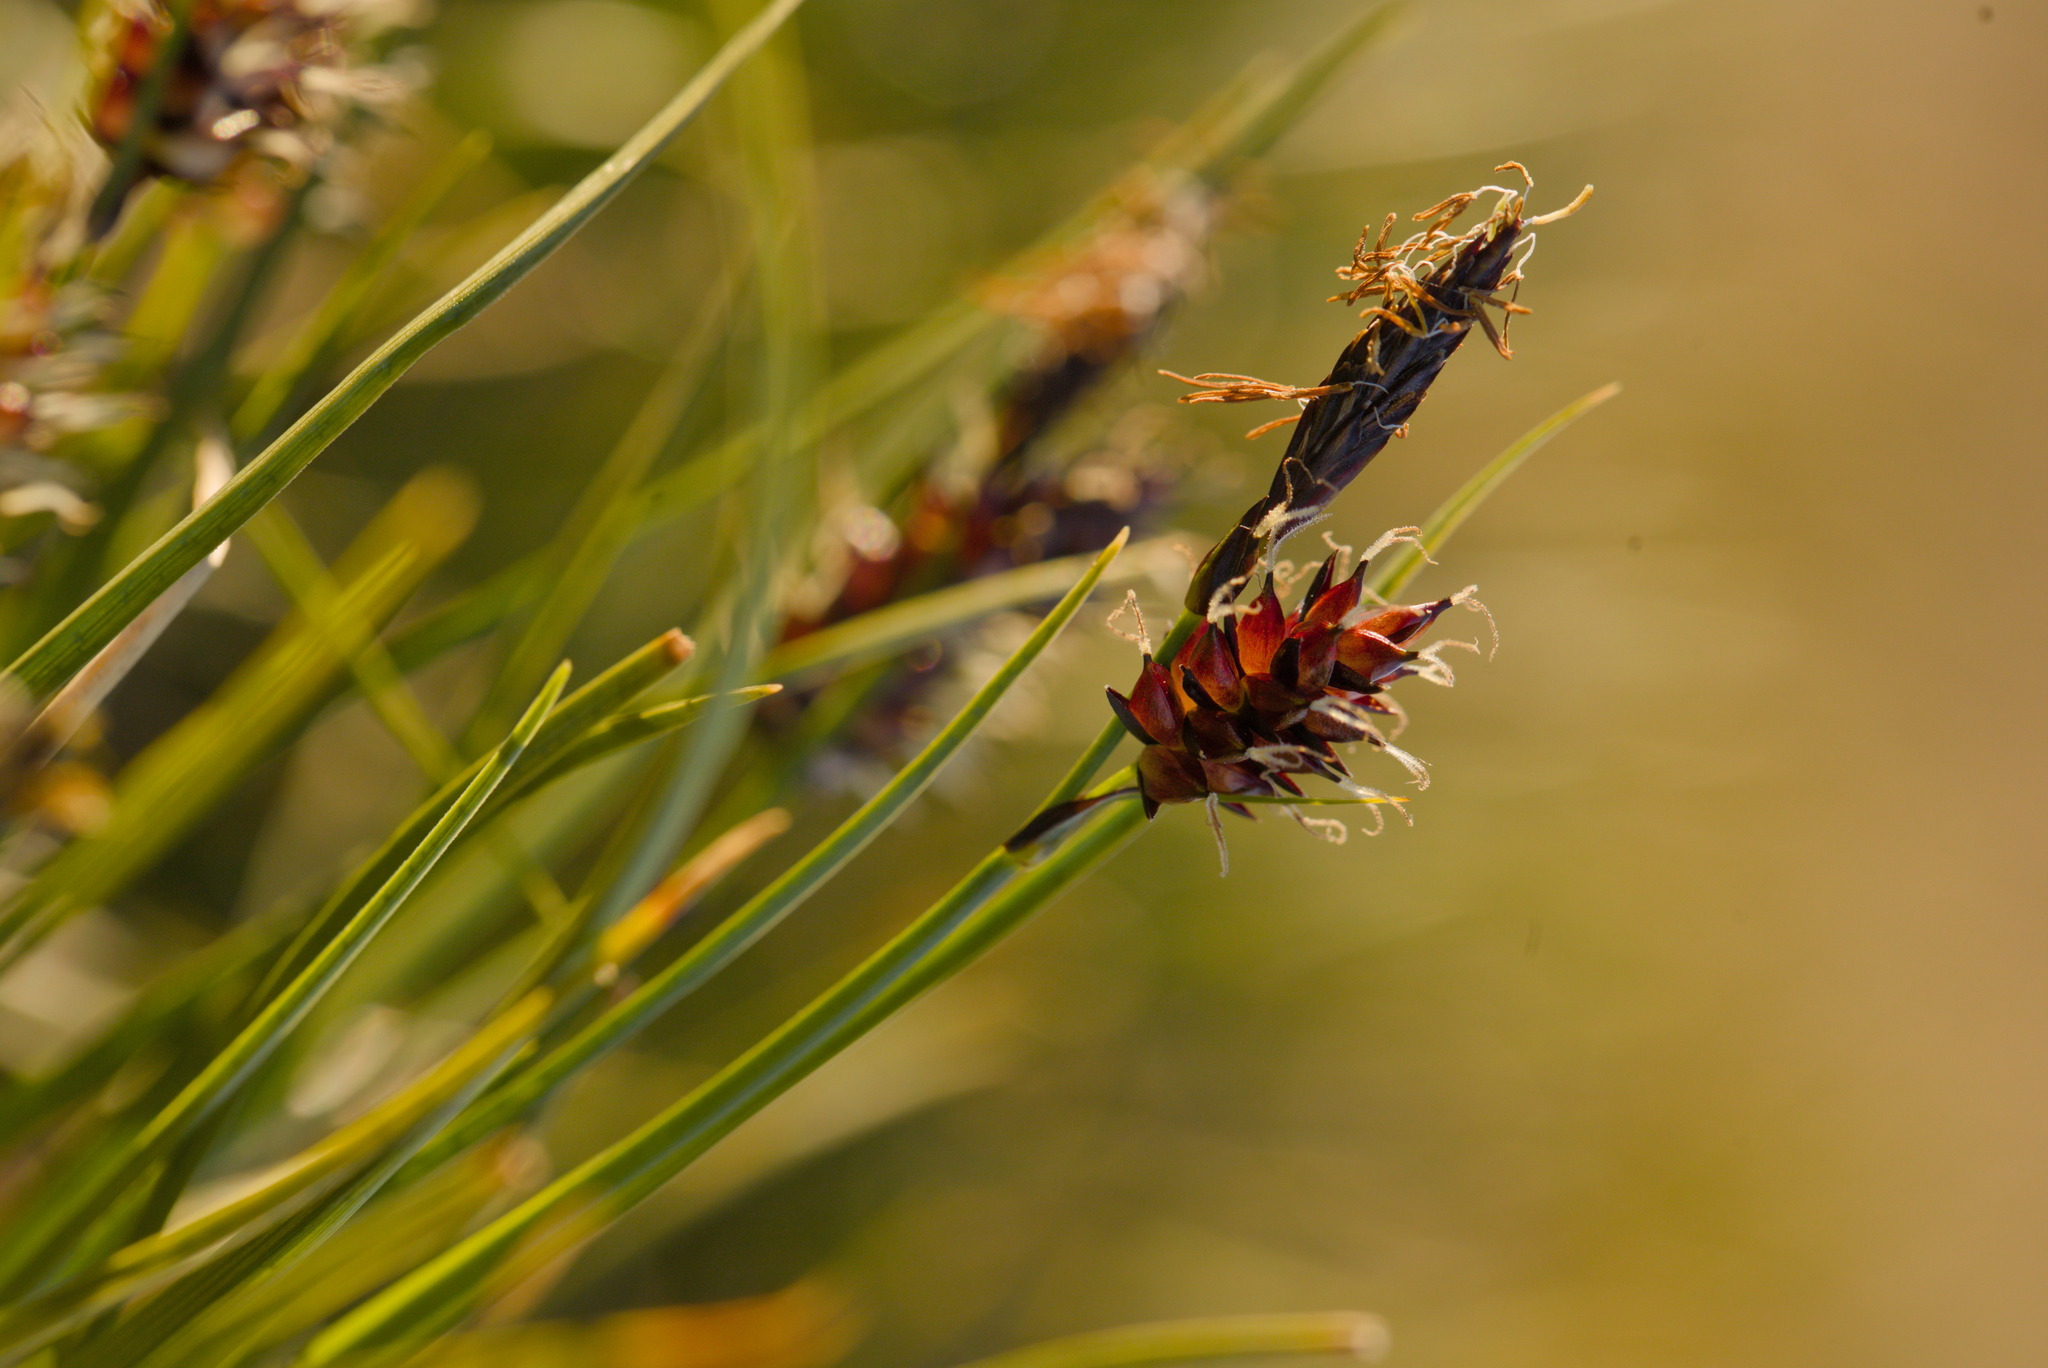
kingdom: Plantae
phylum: Tracheophyta
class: Liliopsida
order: Poales
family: Cyperaceae
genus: Carex
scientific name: Carex saxatilis
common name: Russet sedge
